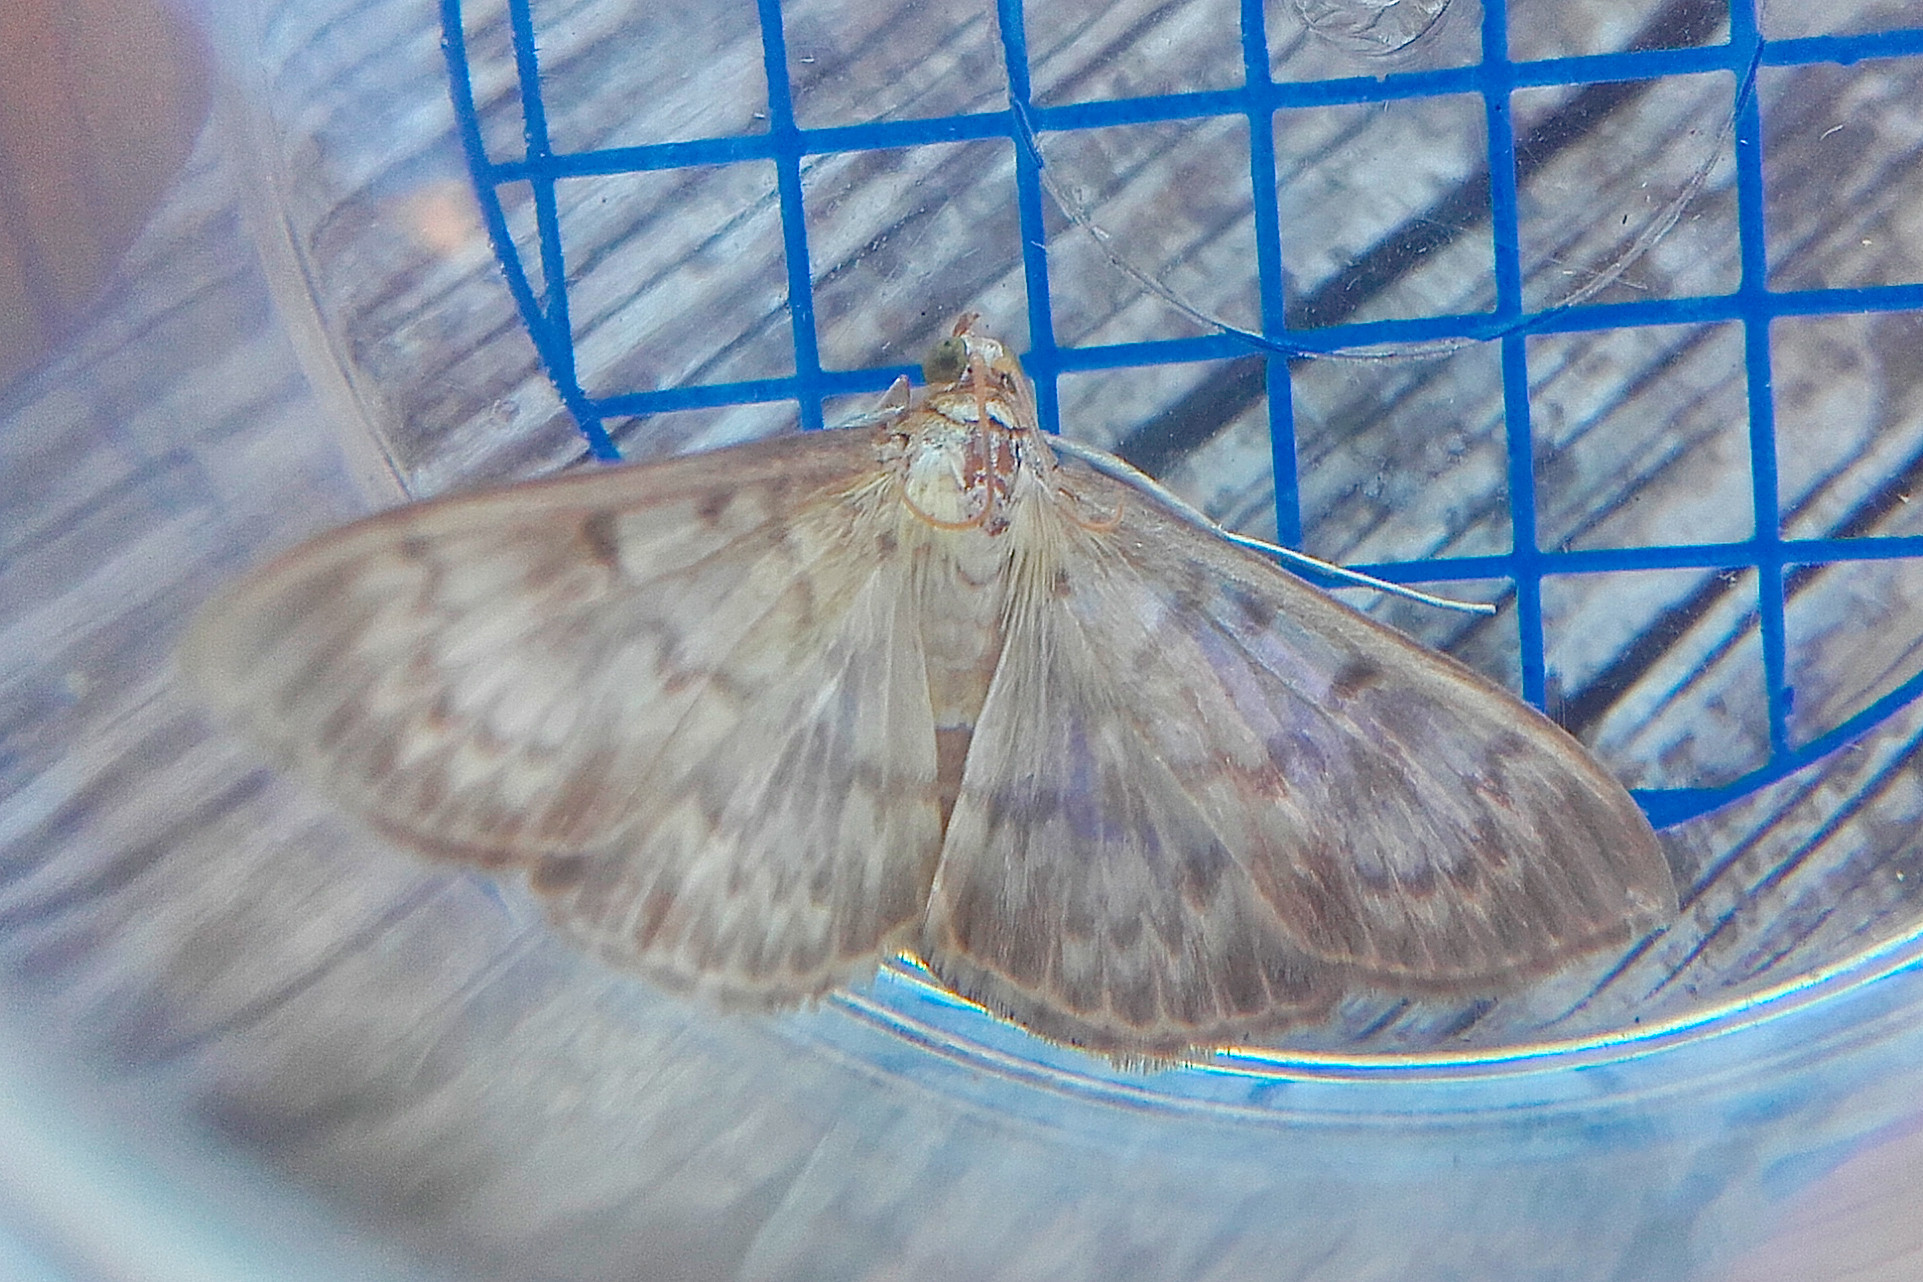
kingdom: Animalia
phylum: Arthropoda
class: Insecta
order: Lepidoptera
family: Crambidae
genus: Patania
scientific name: Patania ruralis
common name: Mother of pearl
